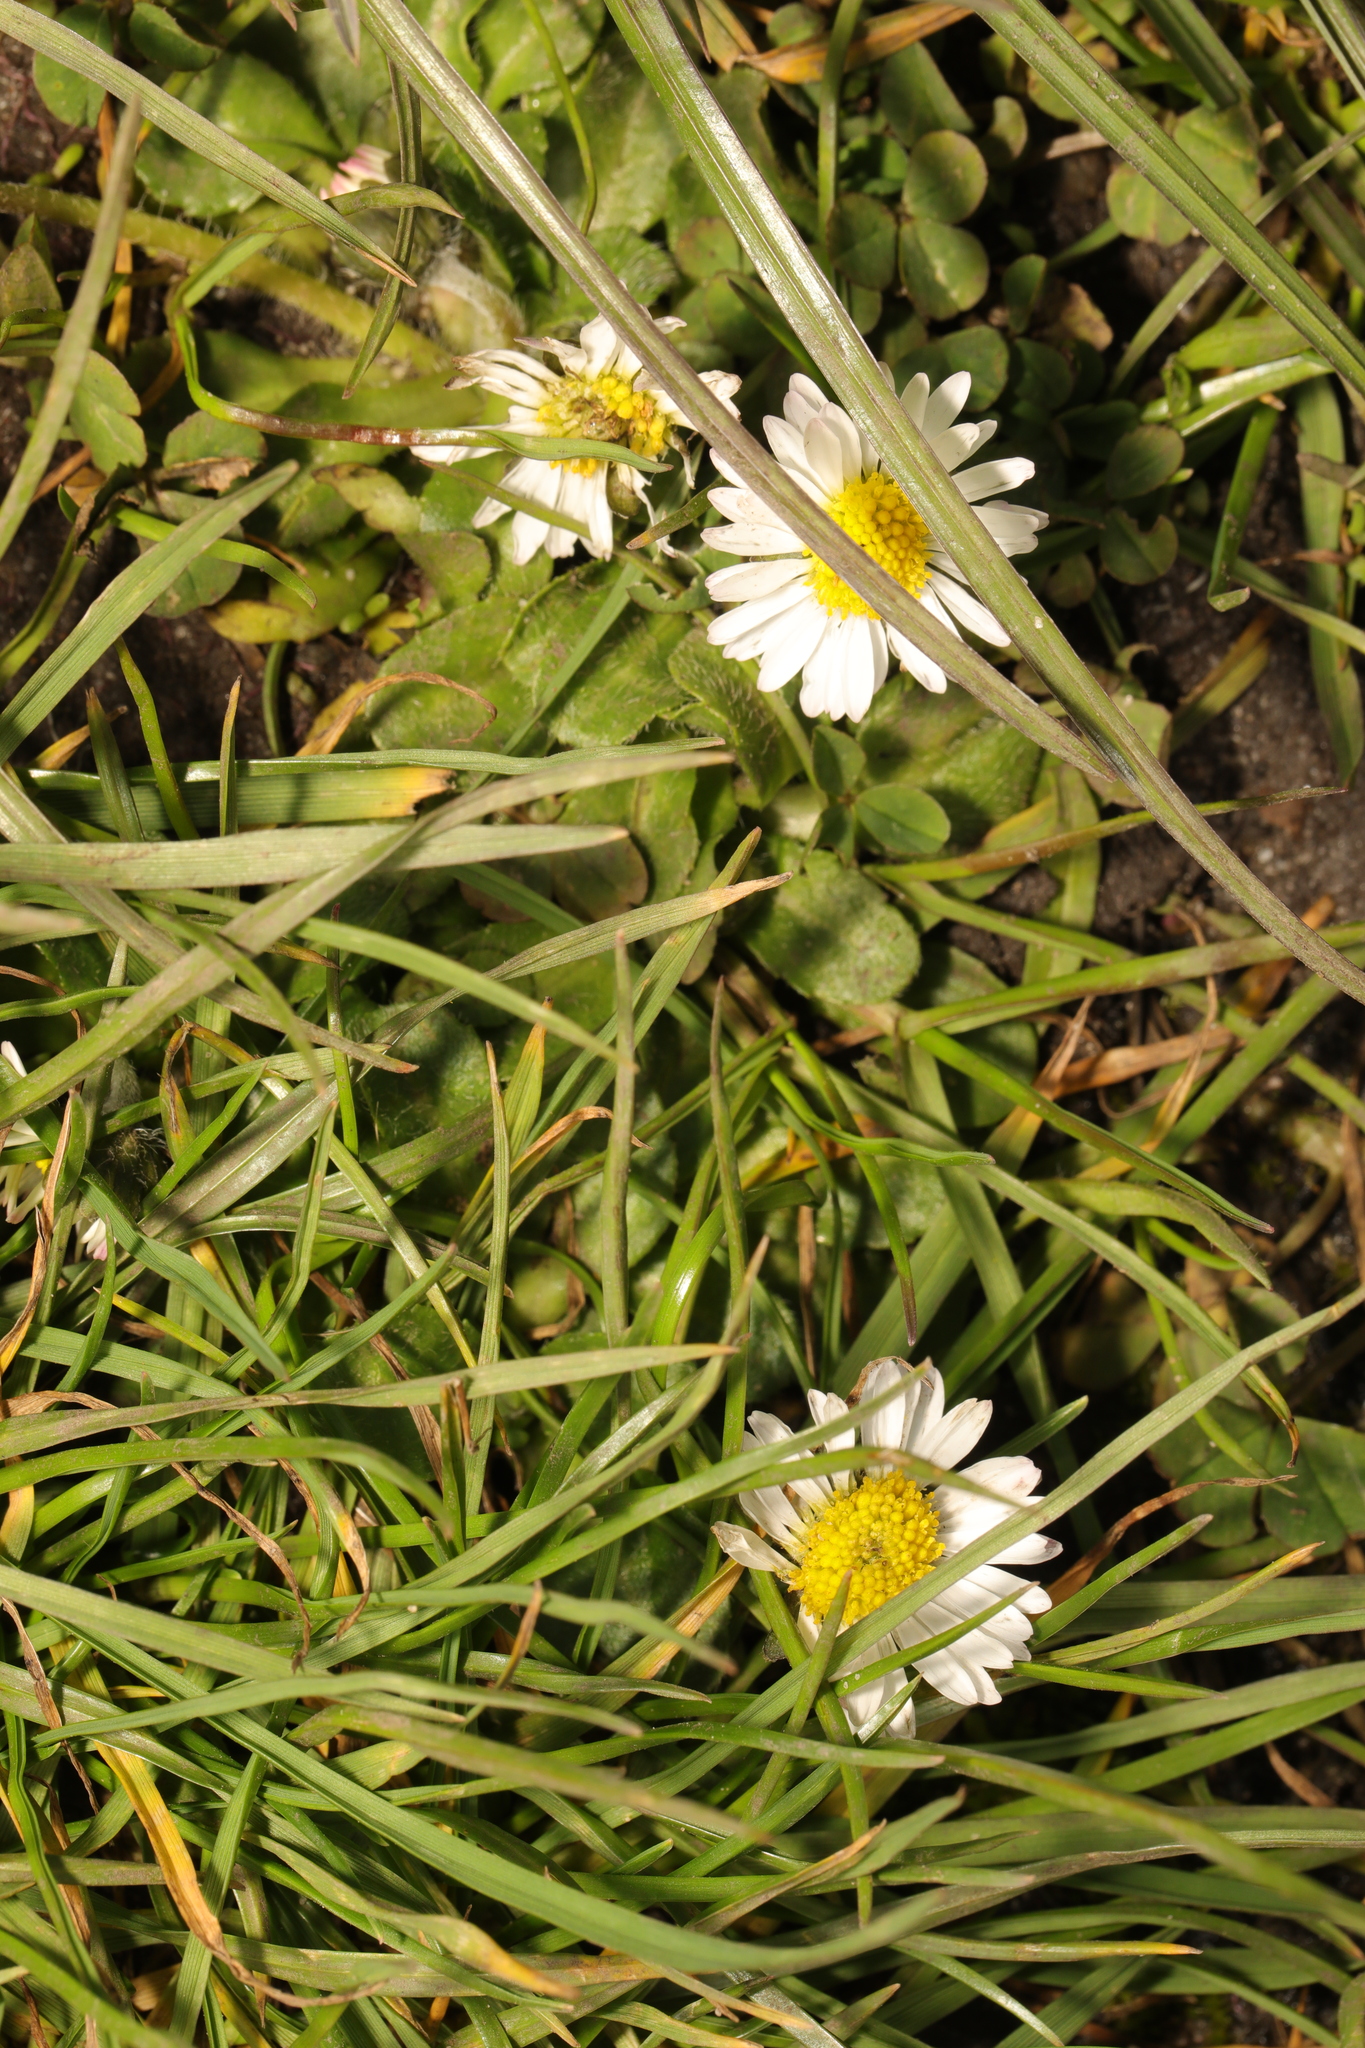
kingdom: Plantae
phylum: Tracheophyta
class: Magnoliopsida
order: Asterales
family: Asteraceae
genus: Bellis
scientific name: Bellis perennis
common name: Lawndaisy
